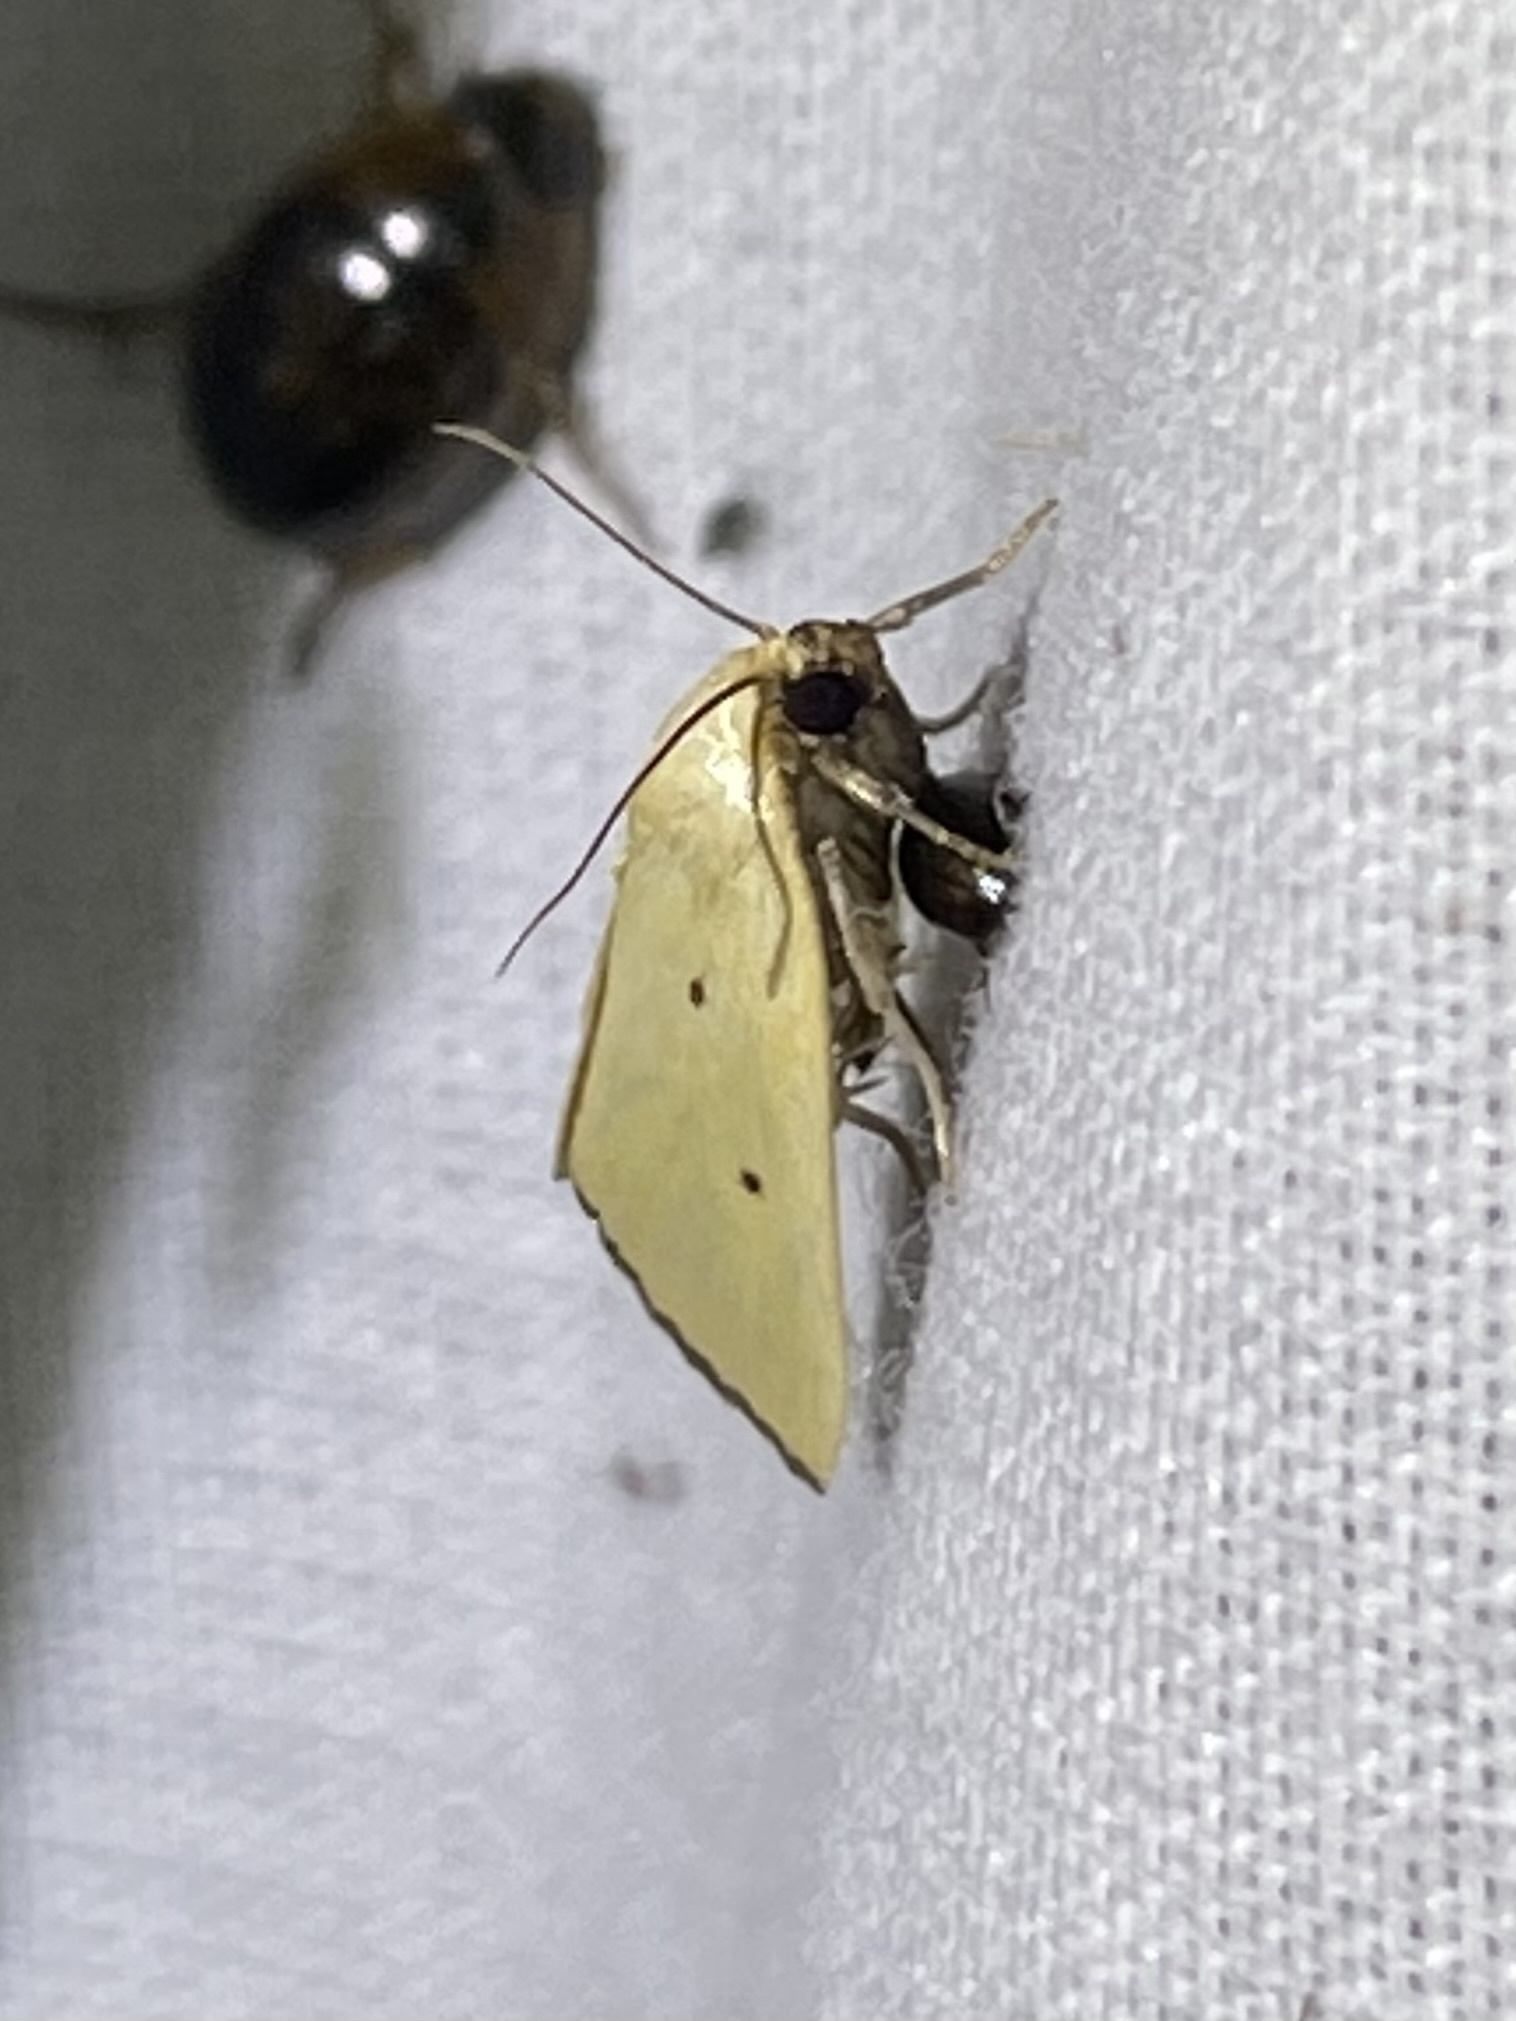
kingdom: Animalia
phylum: Arthropoda
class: Insecta
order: Lepidoptera
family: Noctuidae
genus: Marimatha
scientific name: Marimatha nigrofimbria
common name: Black-bordered lemon moth
